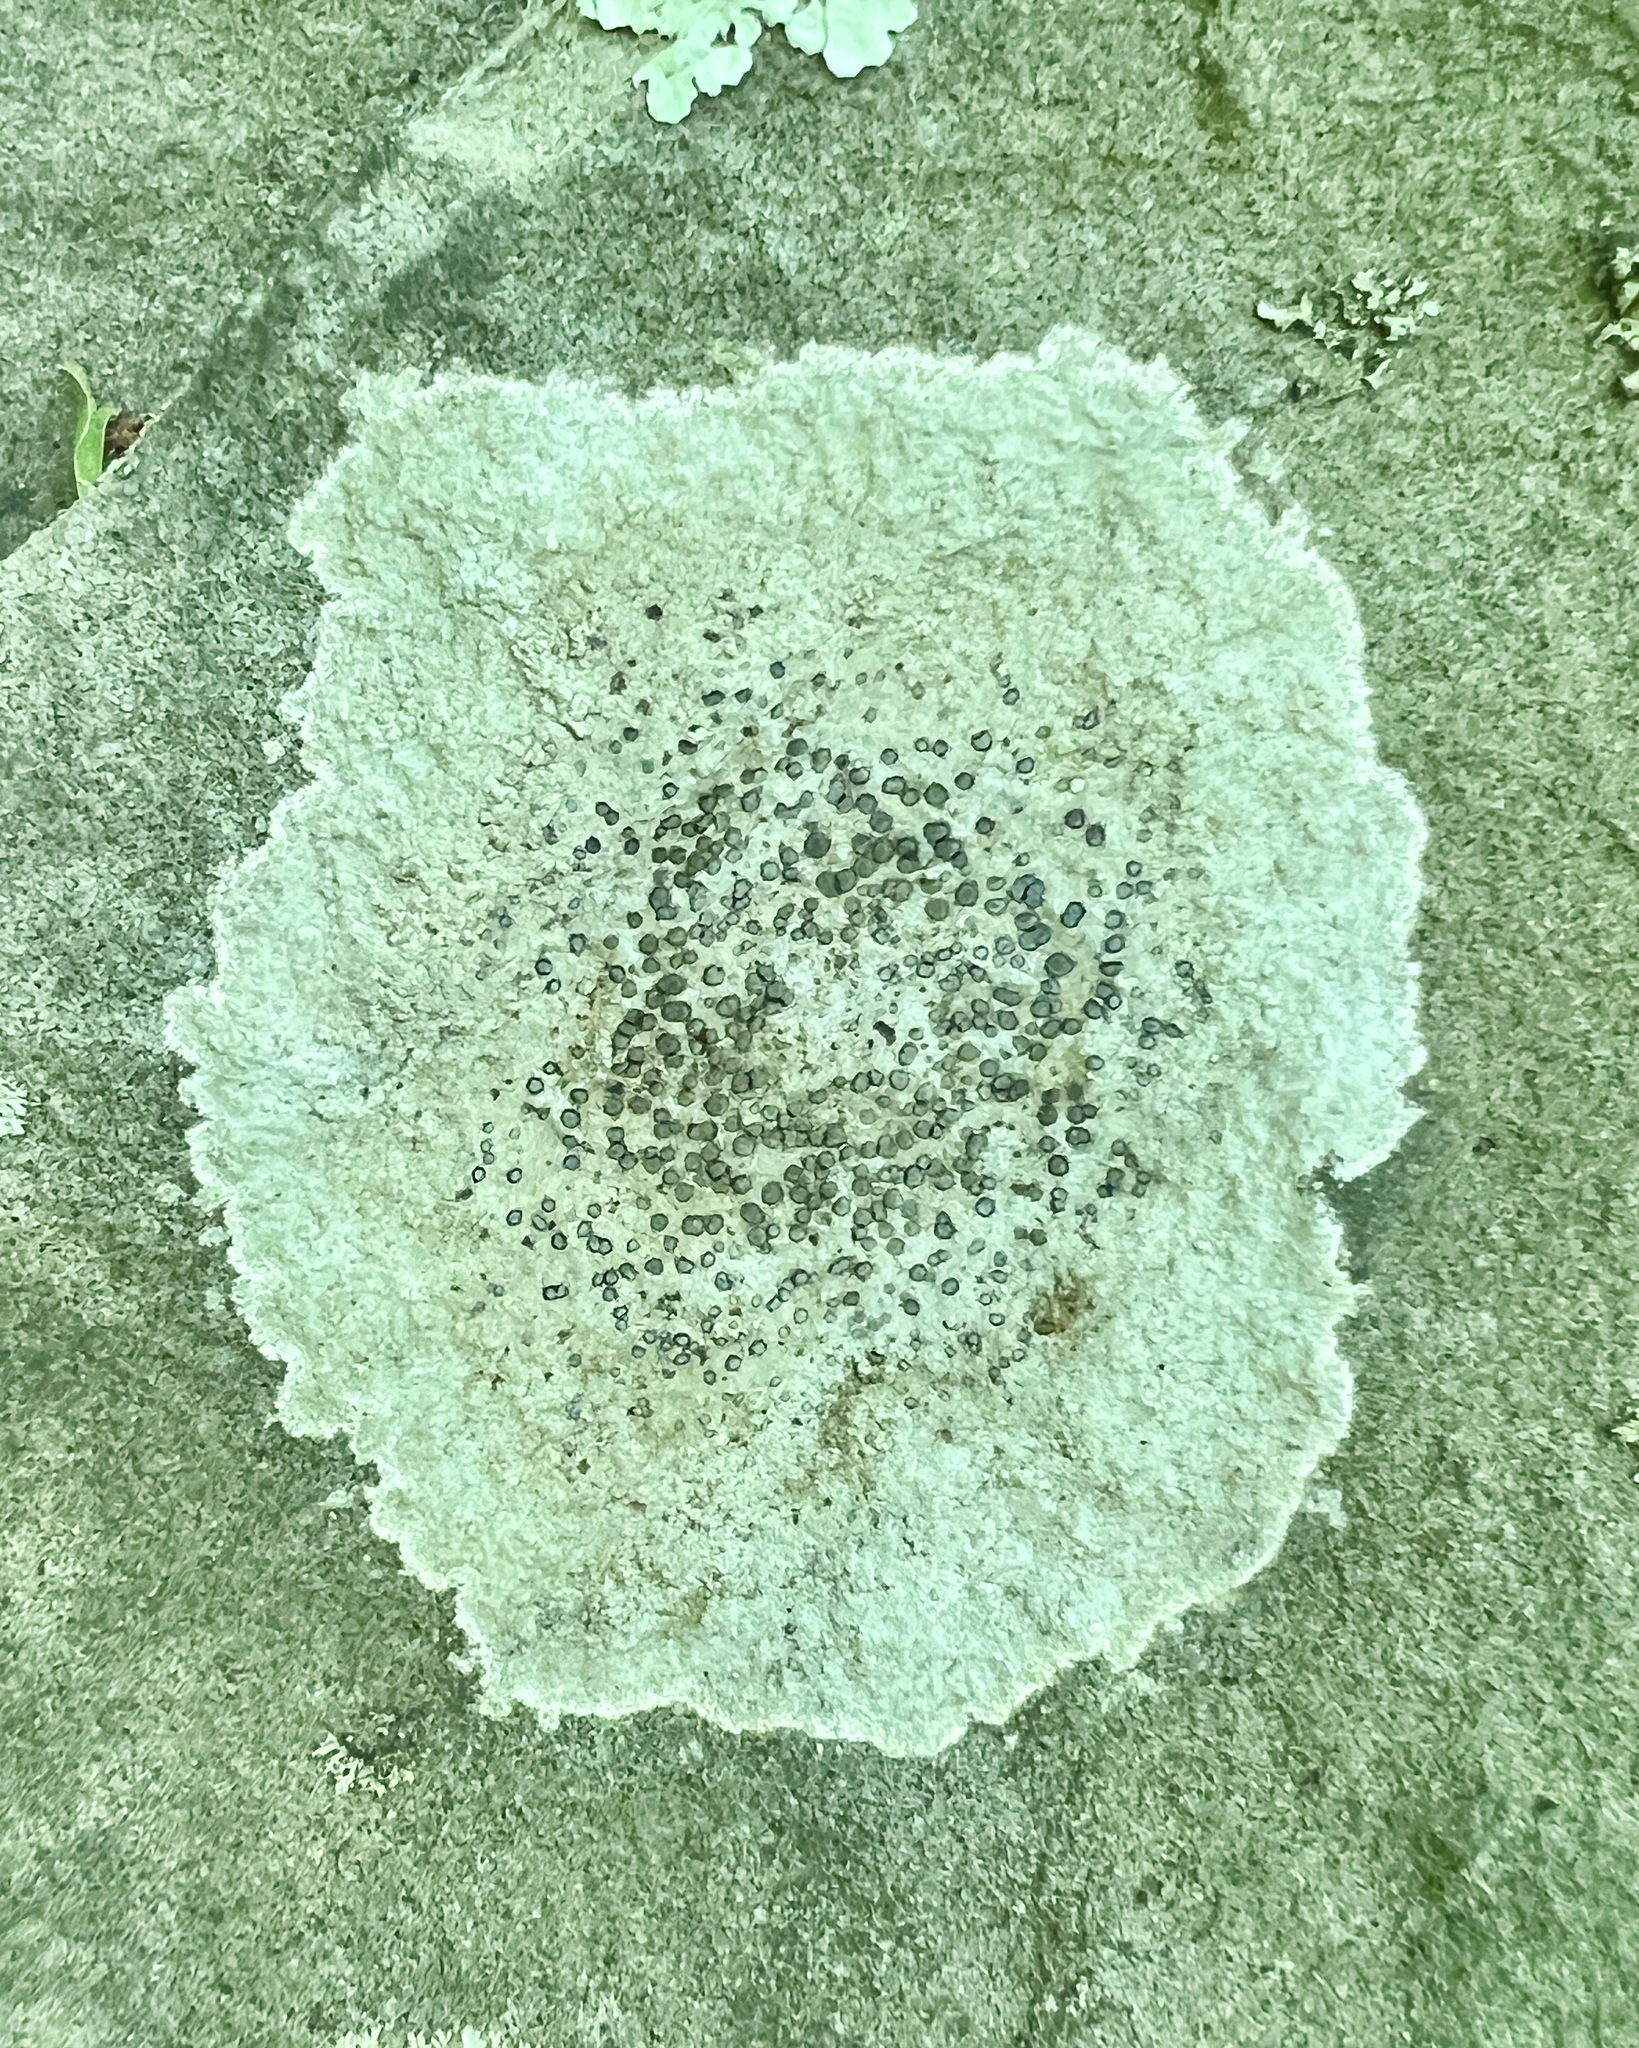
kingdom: Fungi
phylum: Ascomycota
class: Lecanoromycetes
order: Lecideales
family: Lecideaceae
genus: Porpidia
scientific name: Porpidia albocaerulescens
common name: Smokey-eyed boulder lichen
